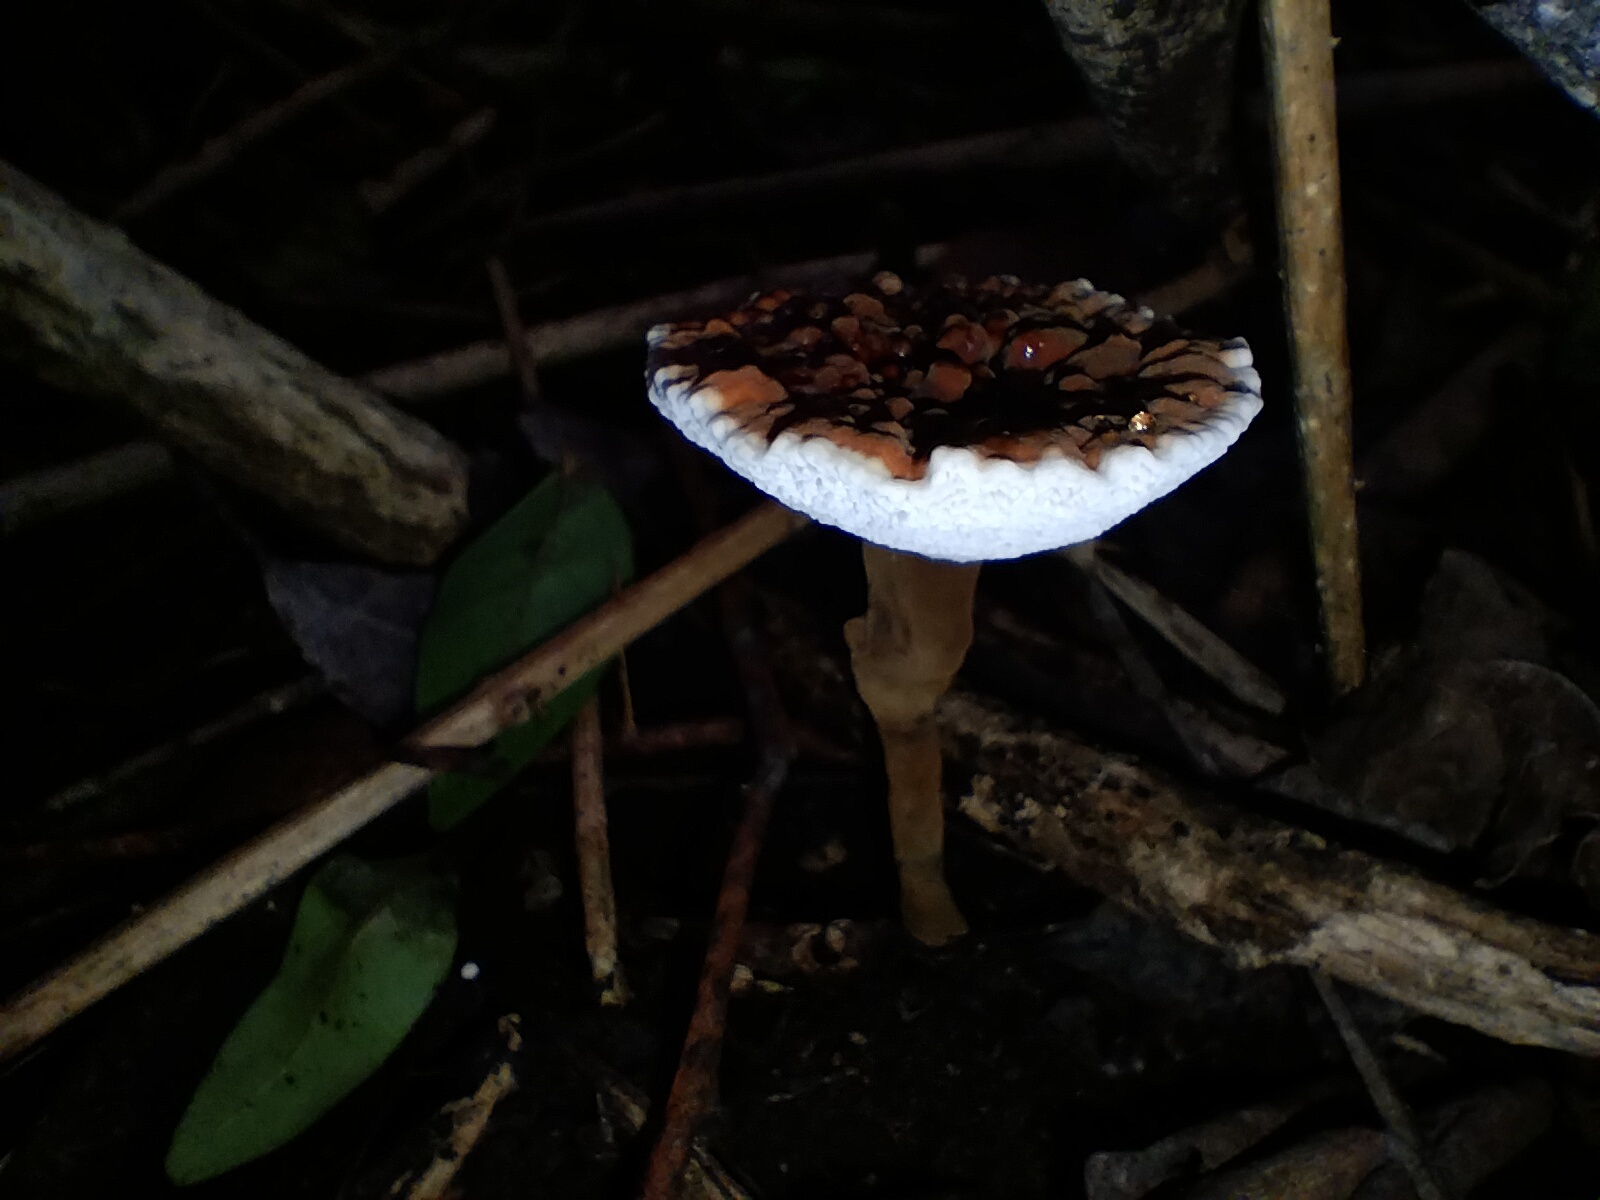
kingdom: Fungi
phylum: Basidiomycota
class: Agaricomycetes
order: Polyporales
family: Ganodermataceae
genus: Sanguinoderma
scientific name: Sanguinoderma rude
